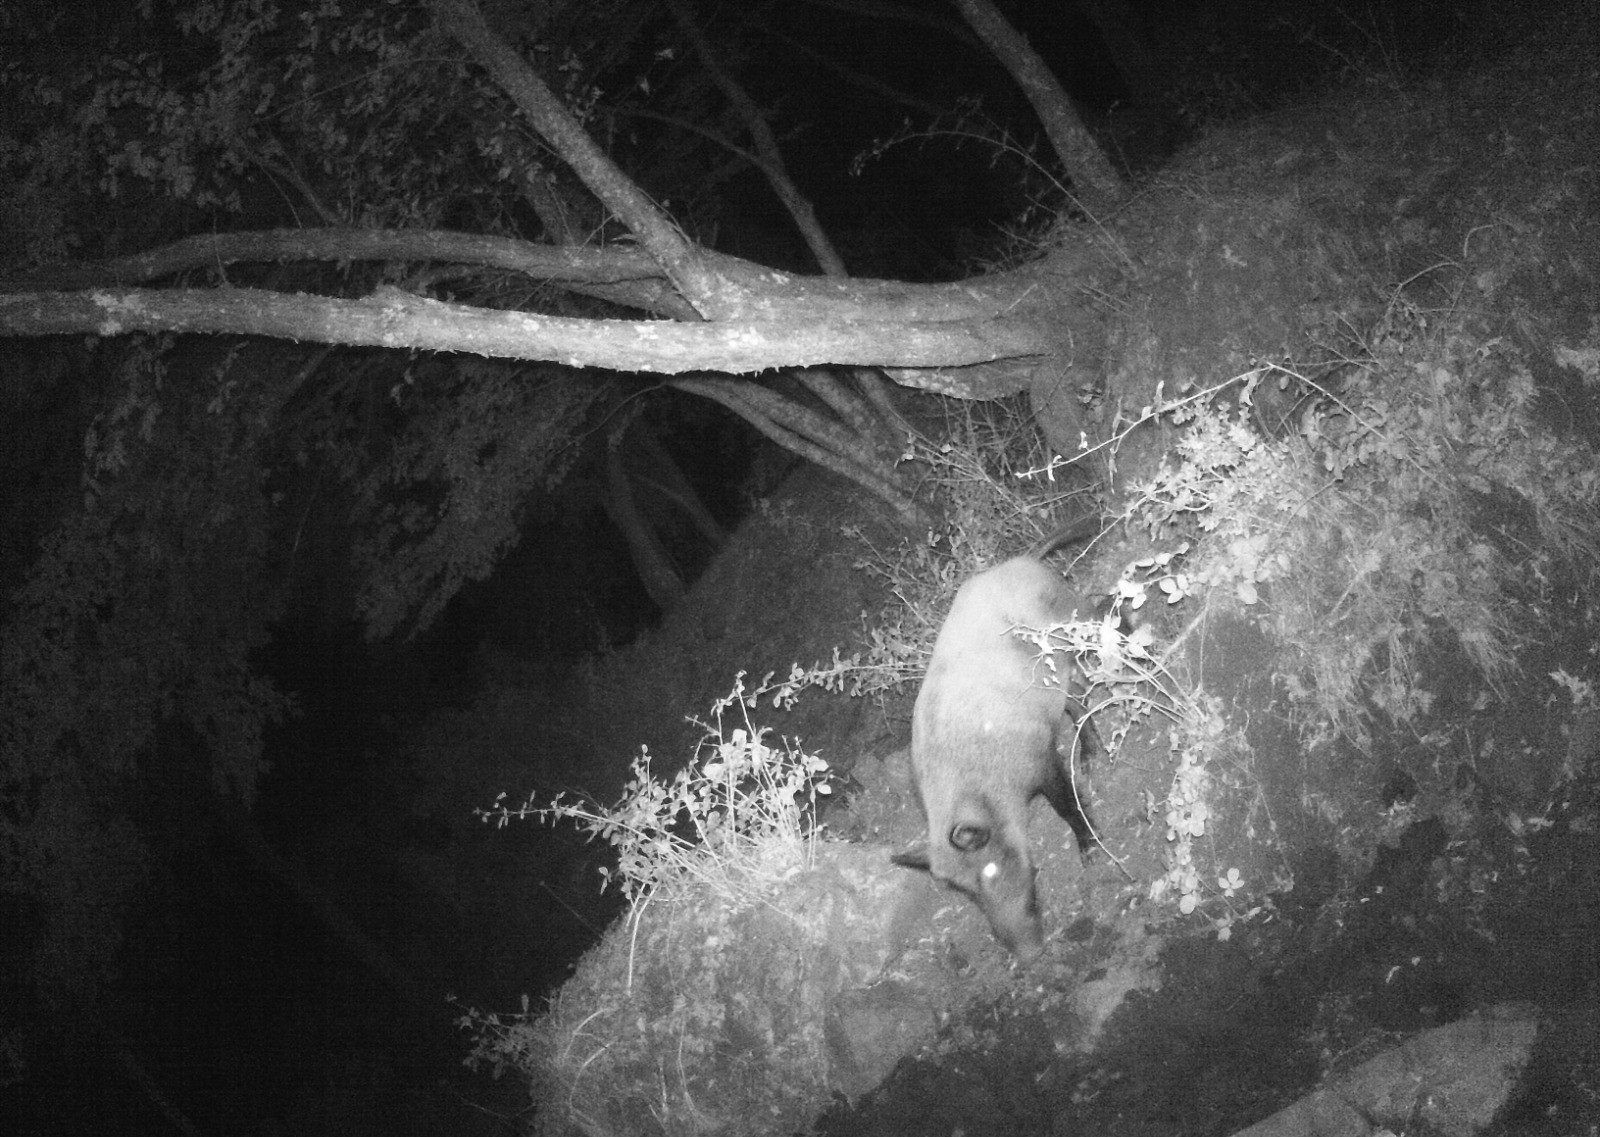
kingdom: Animalia
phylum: Chordata
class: Mammalia
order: Artiodactyla
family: Suidae
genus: Sus
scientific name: Sus scrofa
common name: Wild boar
